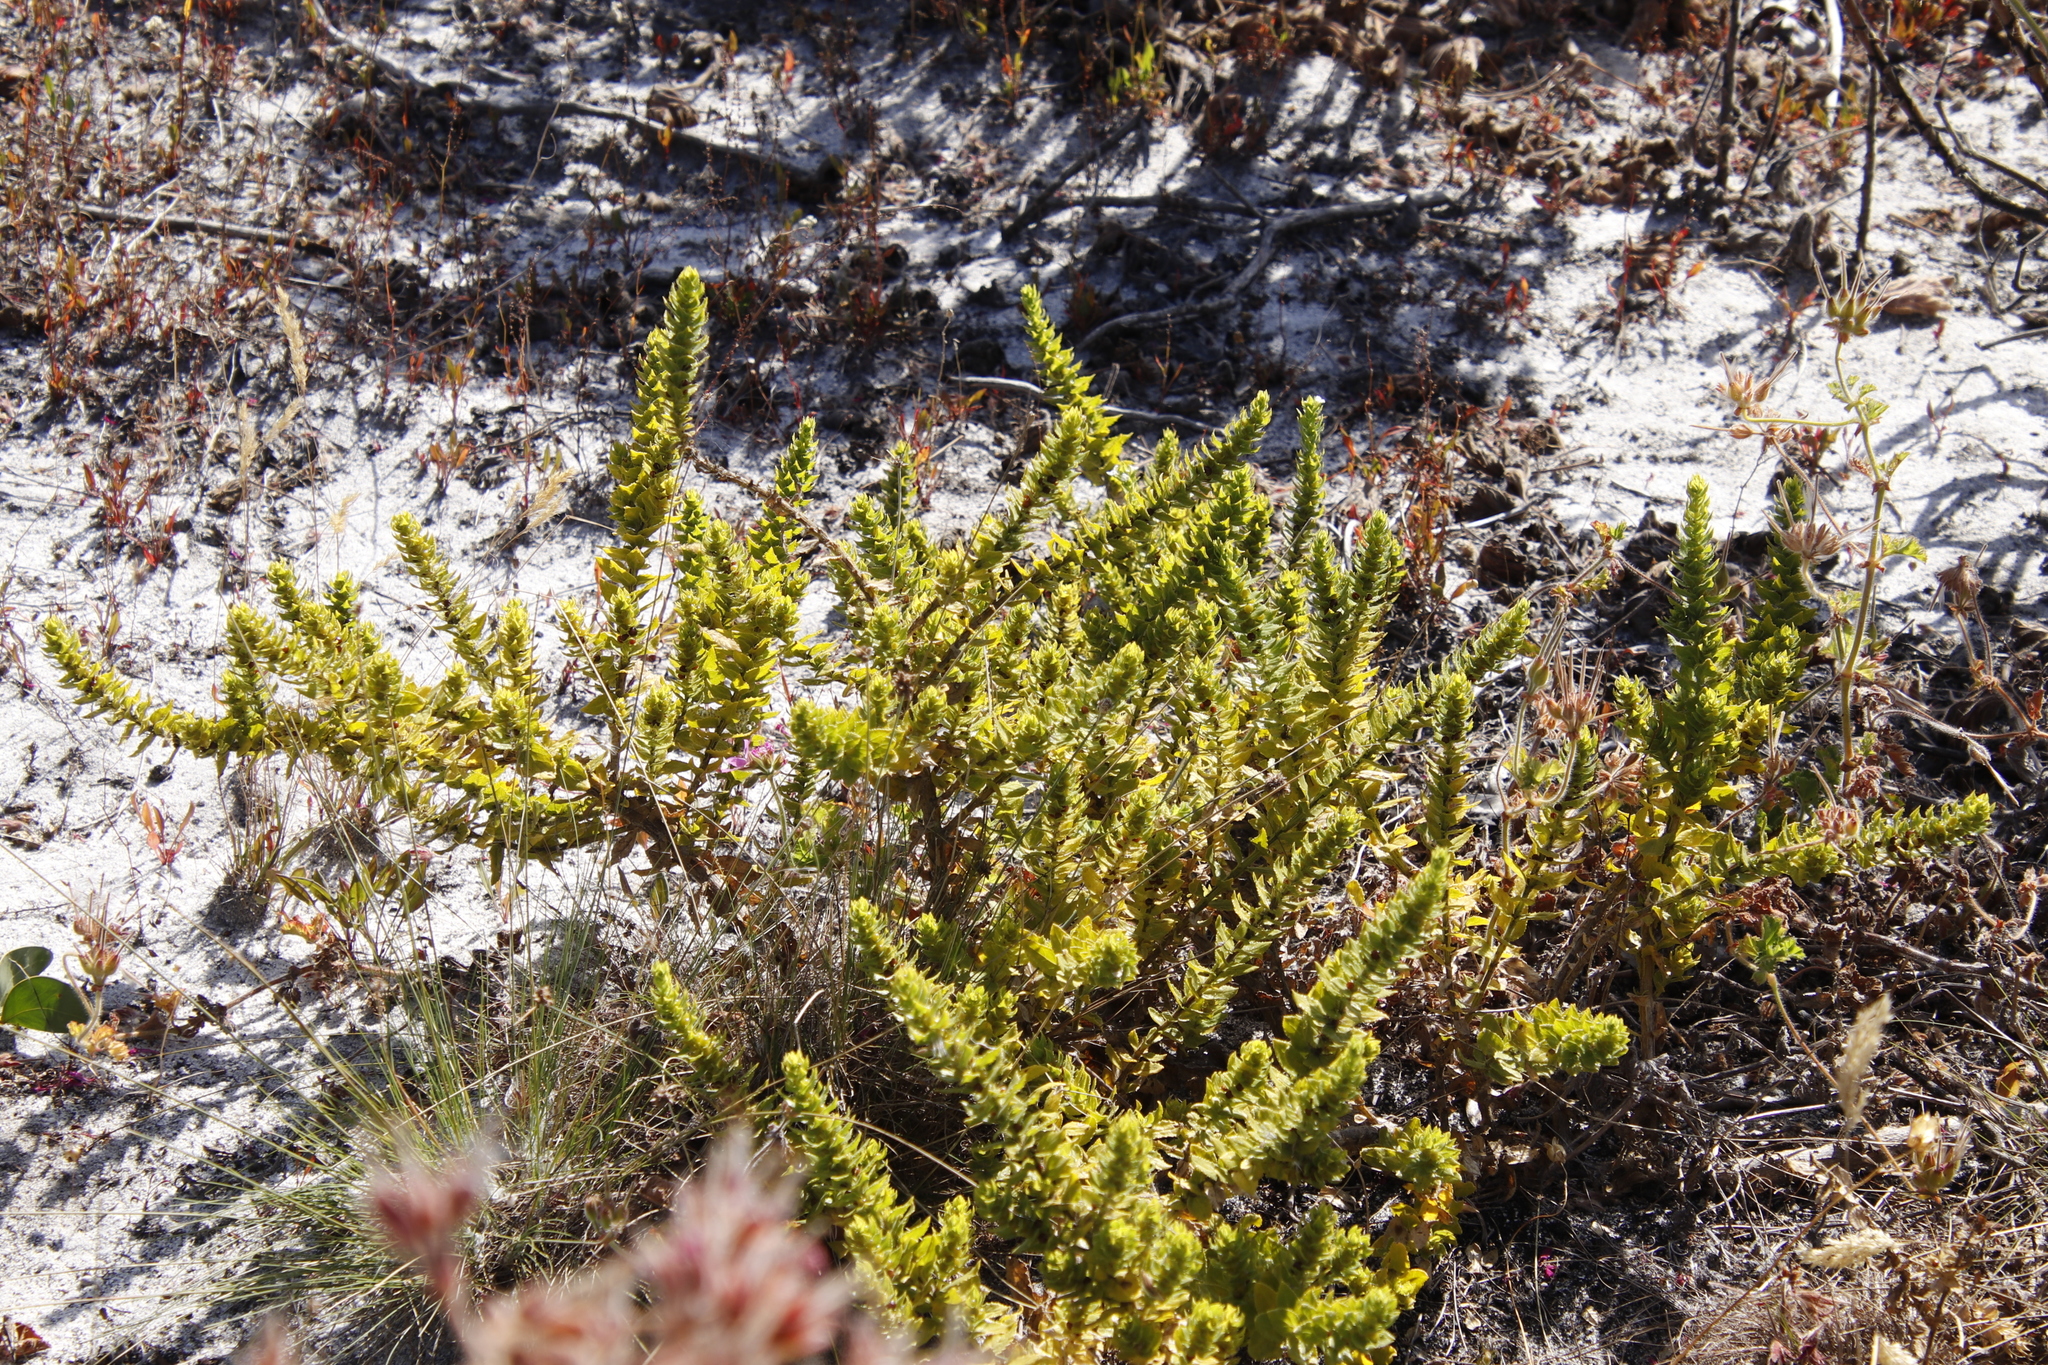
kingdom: Plantae
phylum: Tracheophyta
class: Magnoliopsida
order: Lamiales
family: Scrophulariaceae
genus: Oftia
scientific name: Oftia africana
